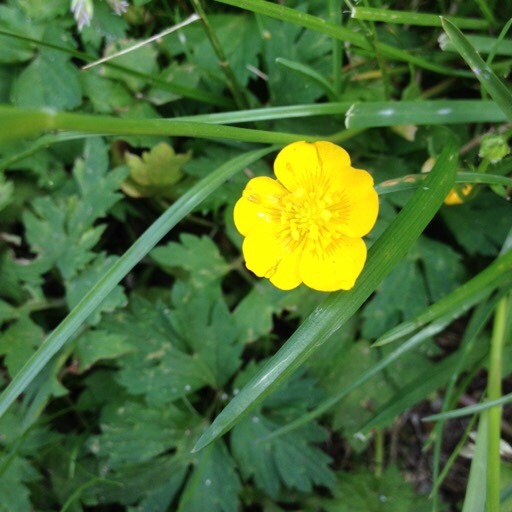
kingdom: Plantae
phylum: Tracheophyta
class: Magnoliopsida
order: Ranunculales
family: Ranunculaceae
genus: Ranunculus
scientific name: Ranunculus repens
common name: Creeping buttercup
